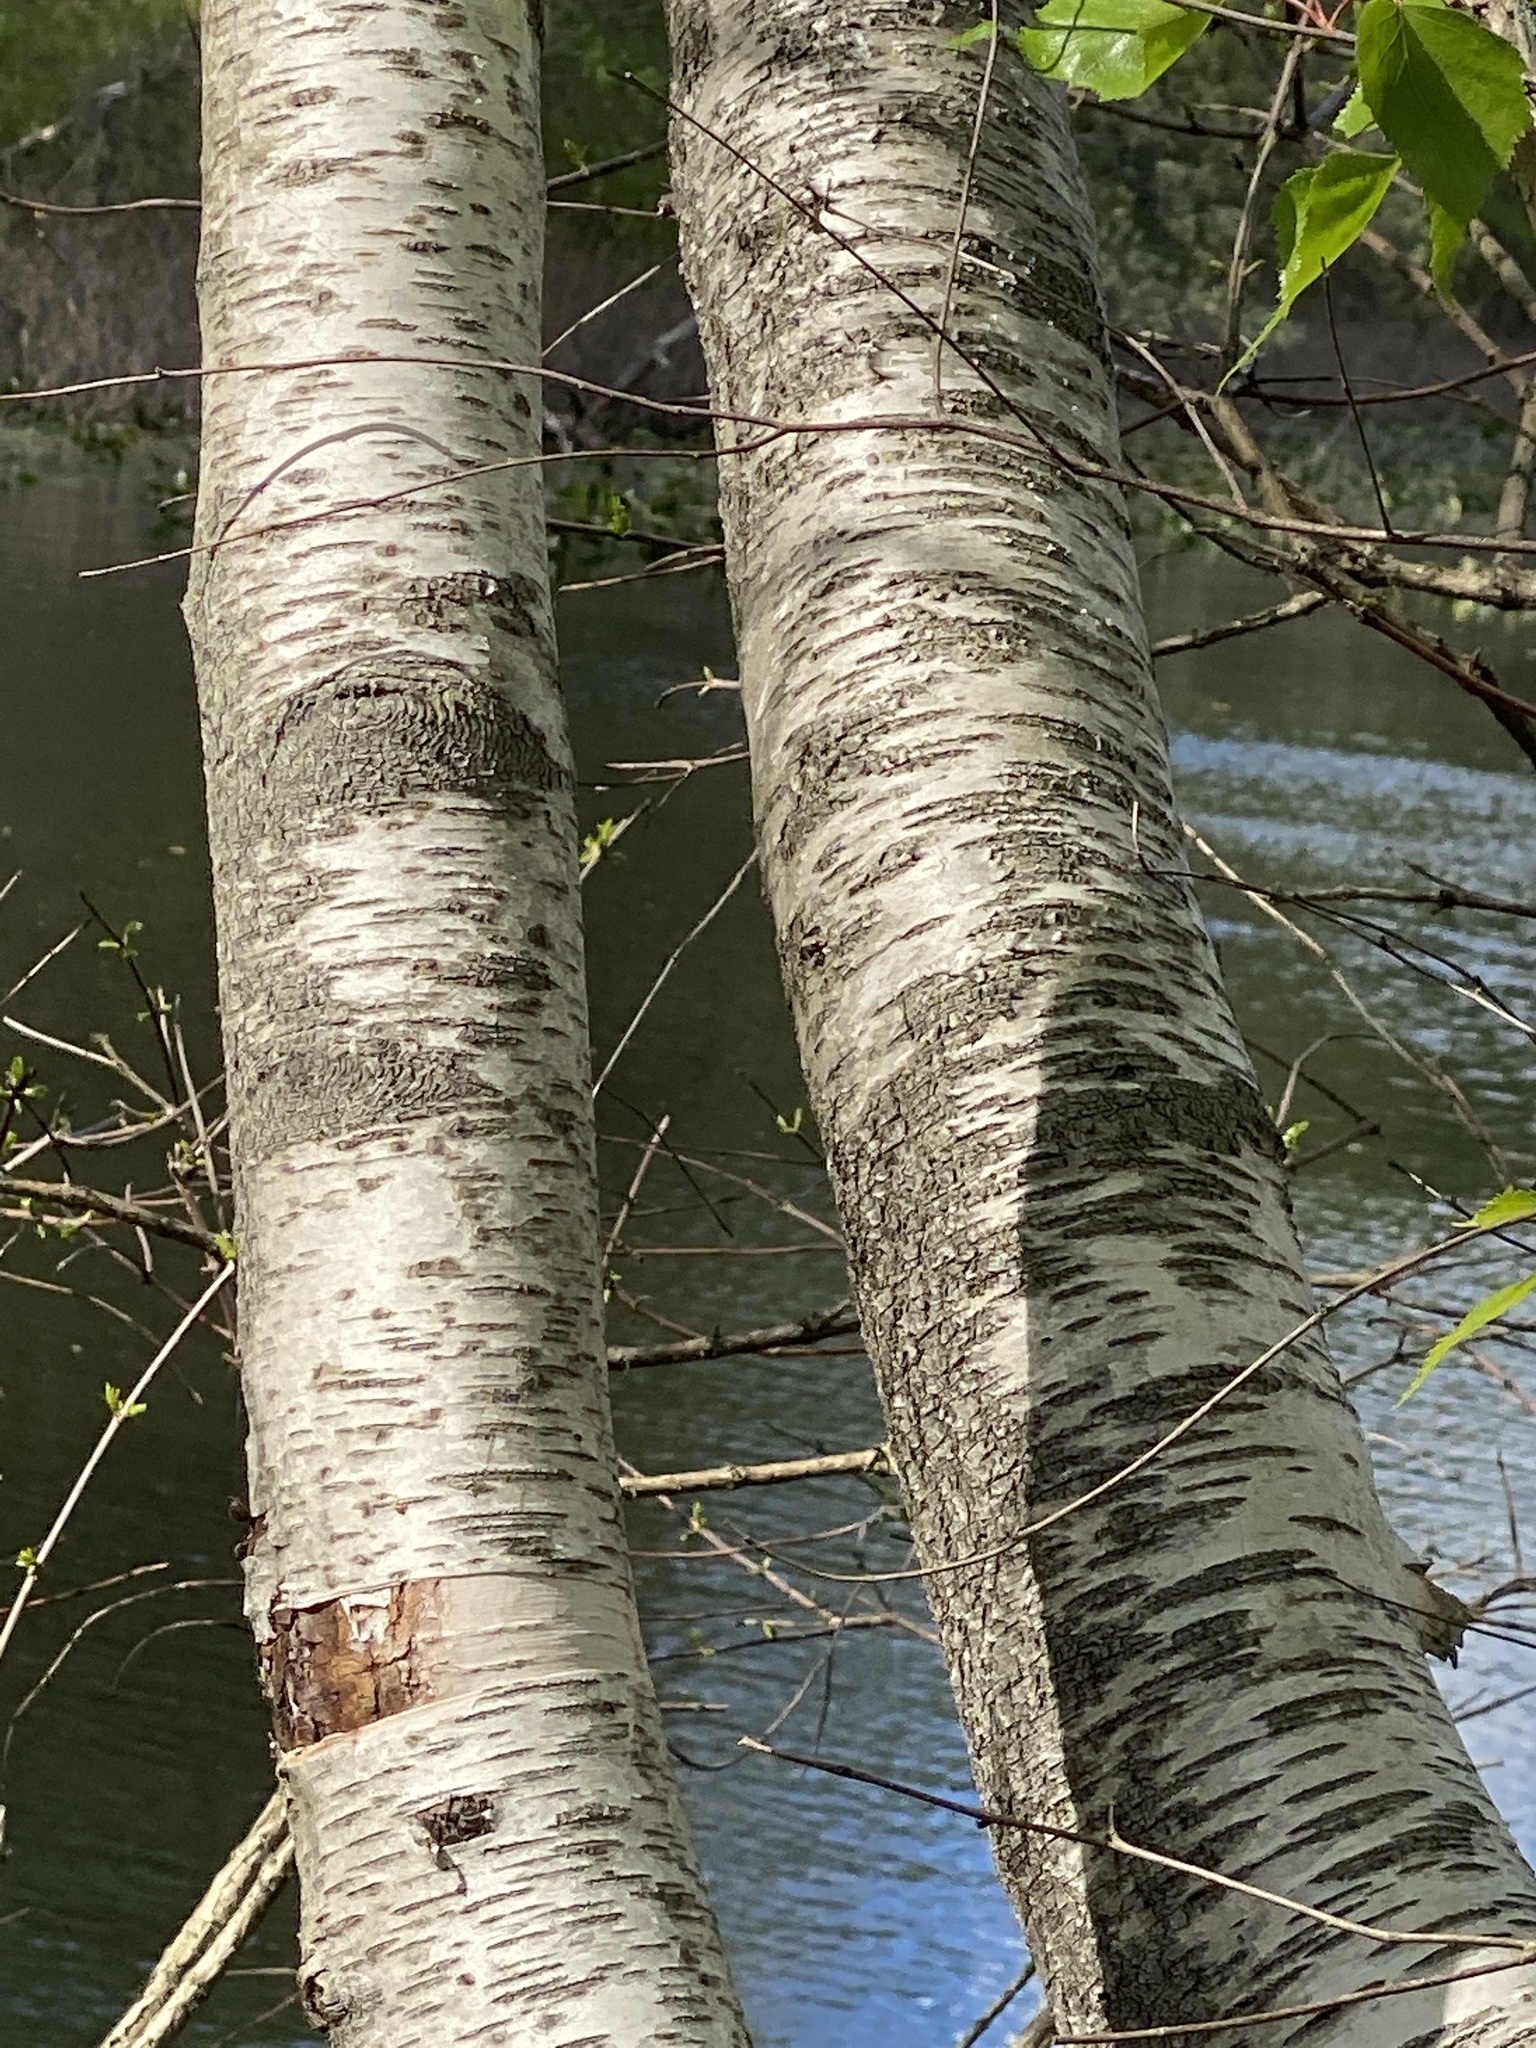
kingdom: Plantae
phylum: Tracheophyta
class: Magnoliopsida
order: Fagales
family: Betulaceae
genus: Betula
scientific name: Betula populifolia
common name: Fire birch
